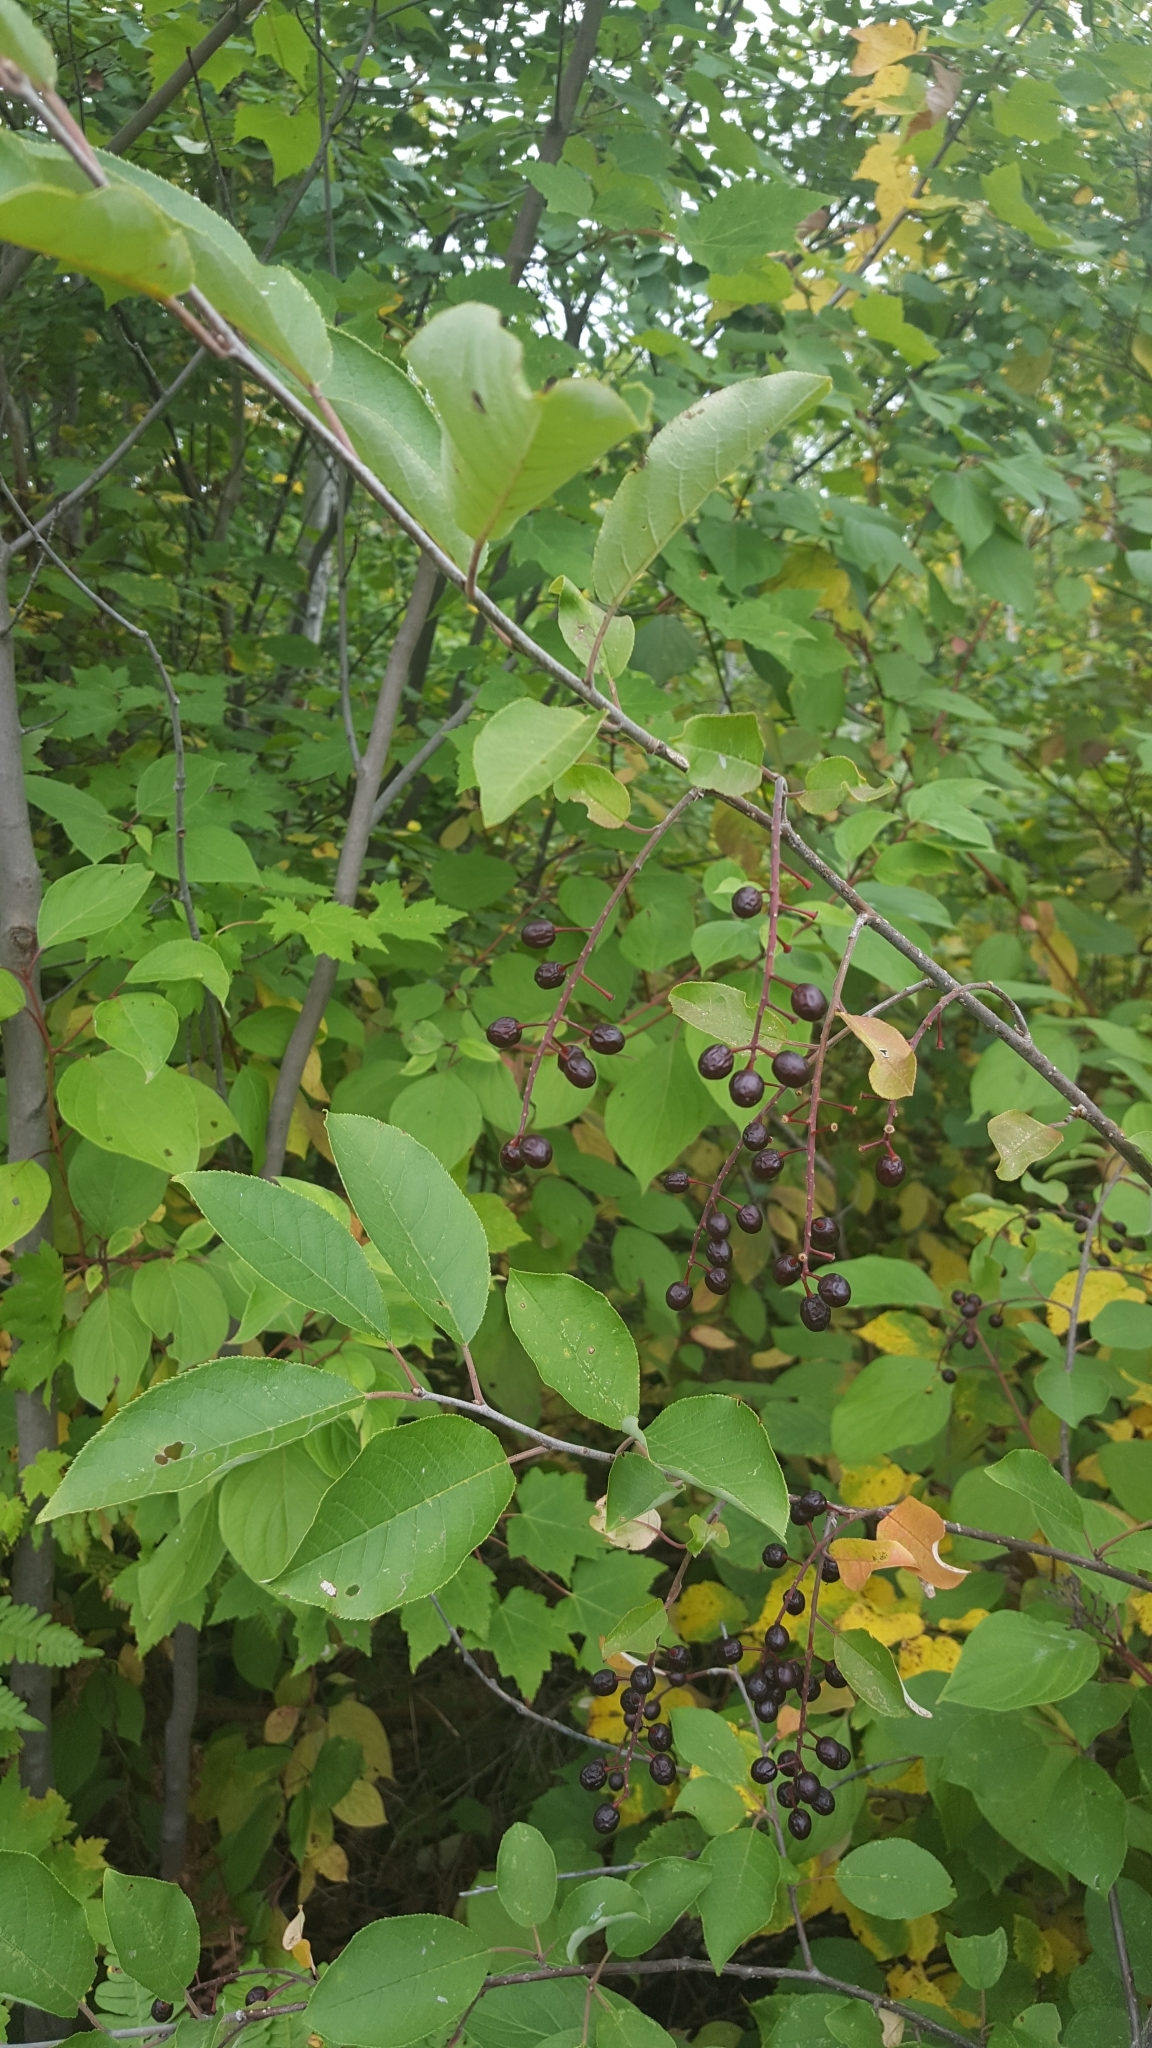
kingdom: Plantae
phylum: Tracheophyta
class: Magnoliopsida
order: Rosales
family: Rosaceae
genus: Prunus
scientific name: Prunus virginiana
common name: Chokecherry
